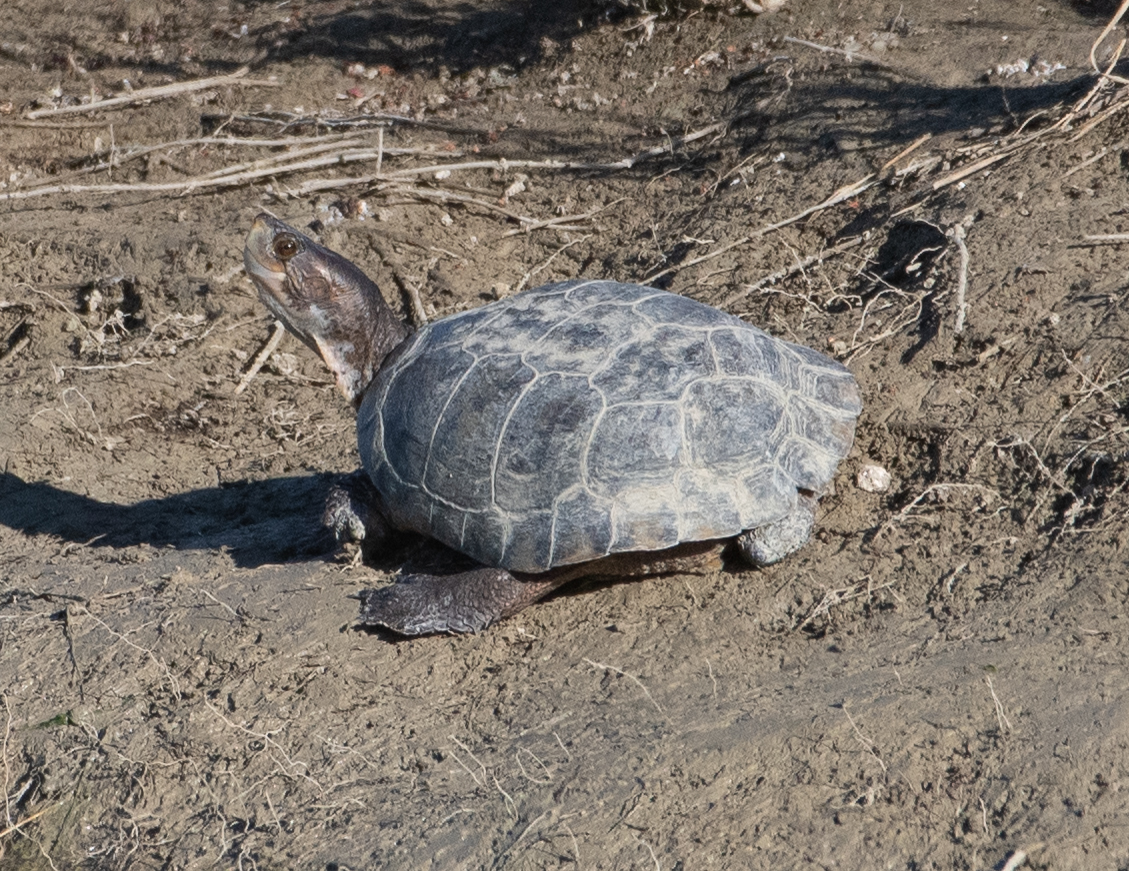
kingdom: Animalia
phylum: Chordata
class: Testudines
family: Emydidae
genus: Actinemys
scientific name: Actinemys marmorata
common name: Western pond turtle
